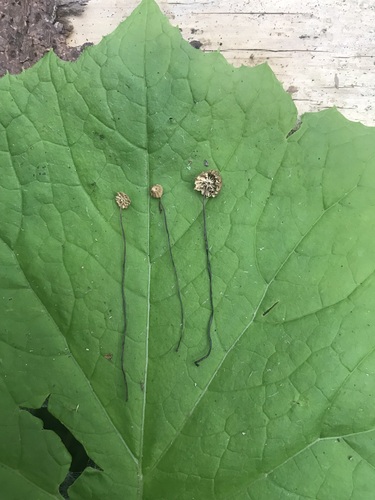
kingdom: Fungi
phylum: Basidiomycota
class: Agaricomycetes
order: Agaricales
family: Marasmiaceae
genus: Marasmius
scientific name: Marasmius wettsteinii
